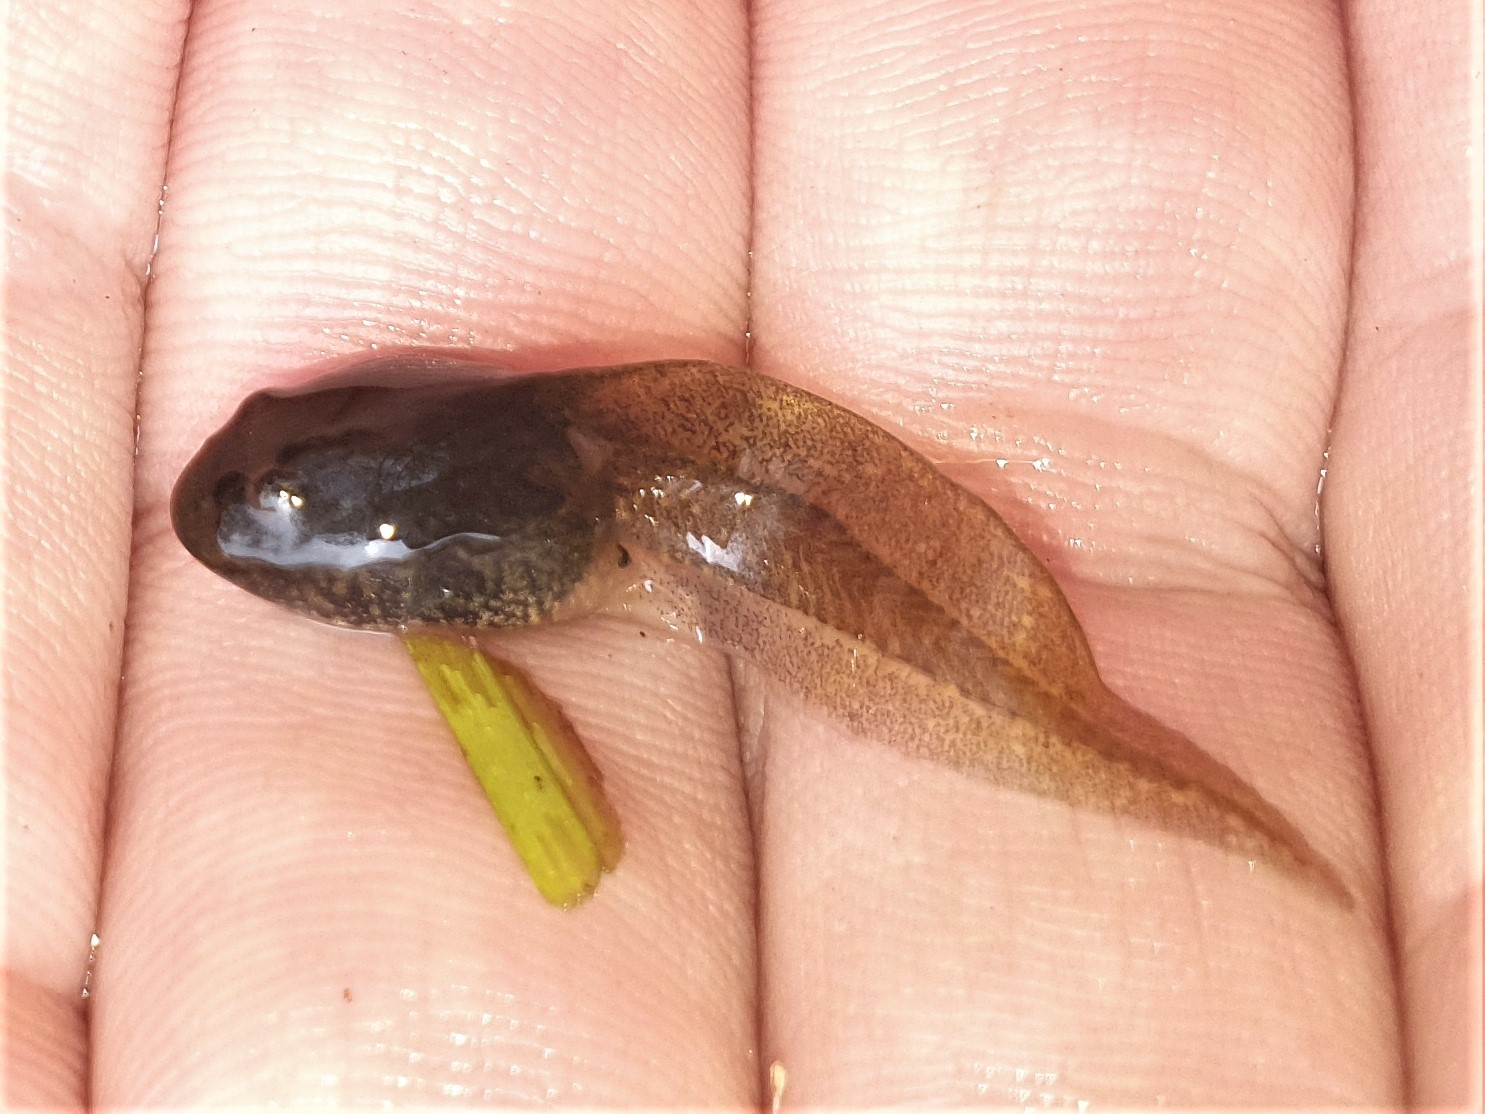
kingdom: Animalia
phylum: Chordata
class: Amphibia
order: Anura
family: Ranidae
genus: Rana
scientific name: Rana temporaria
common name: Common frog
